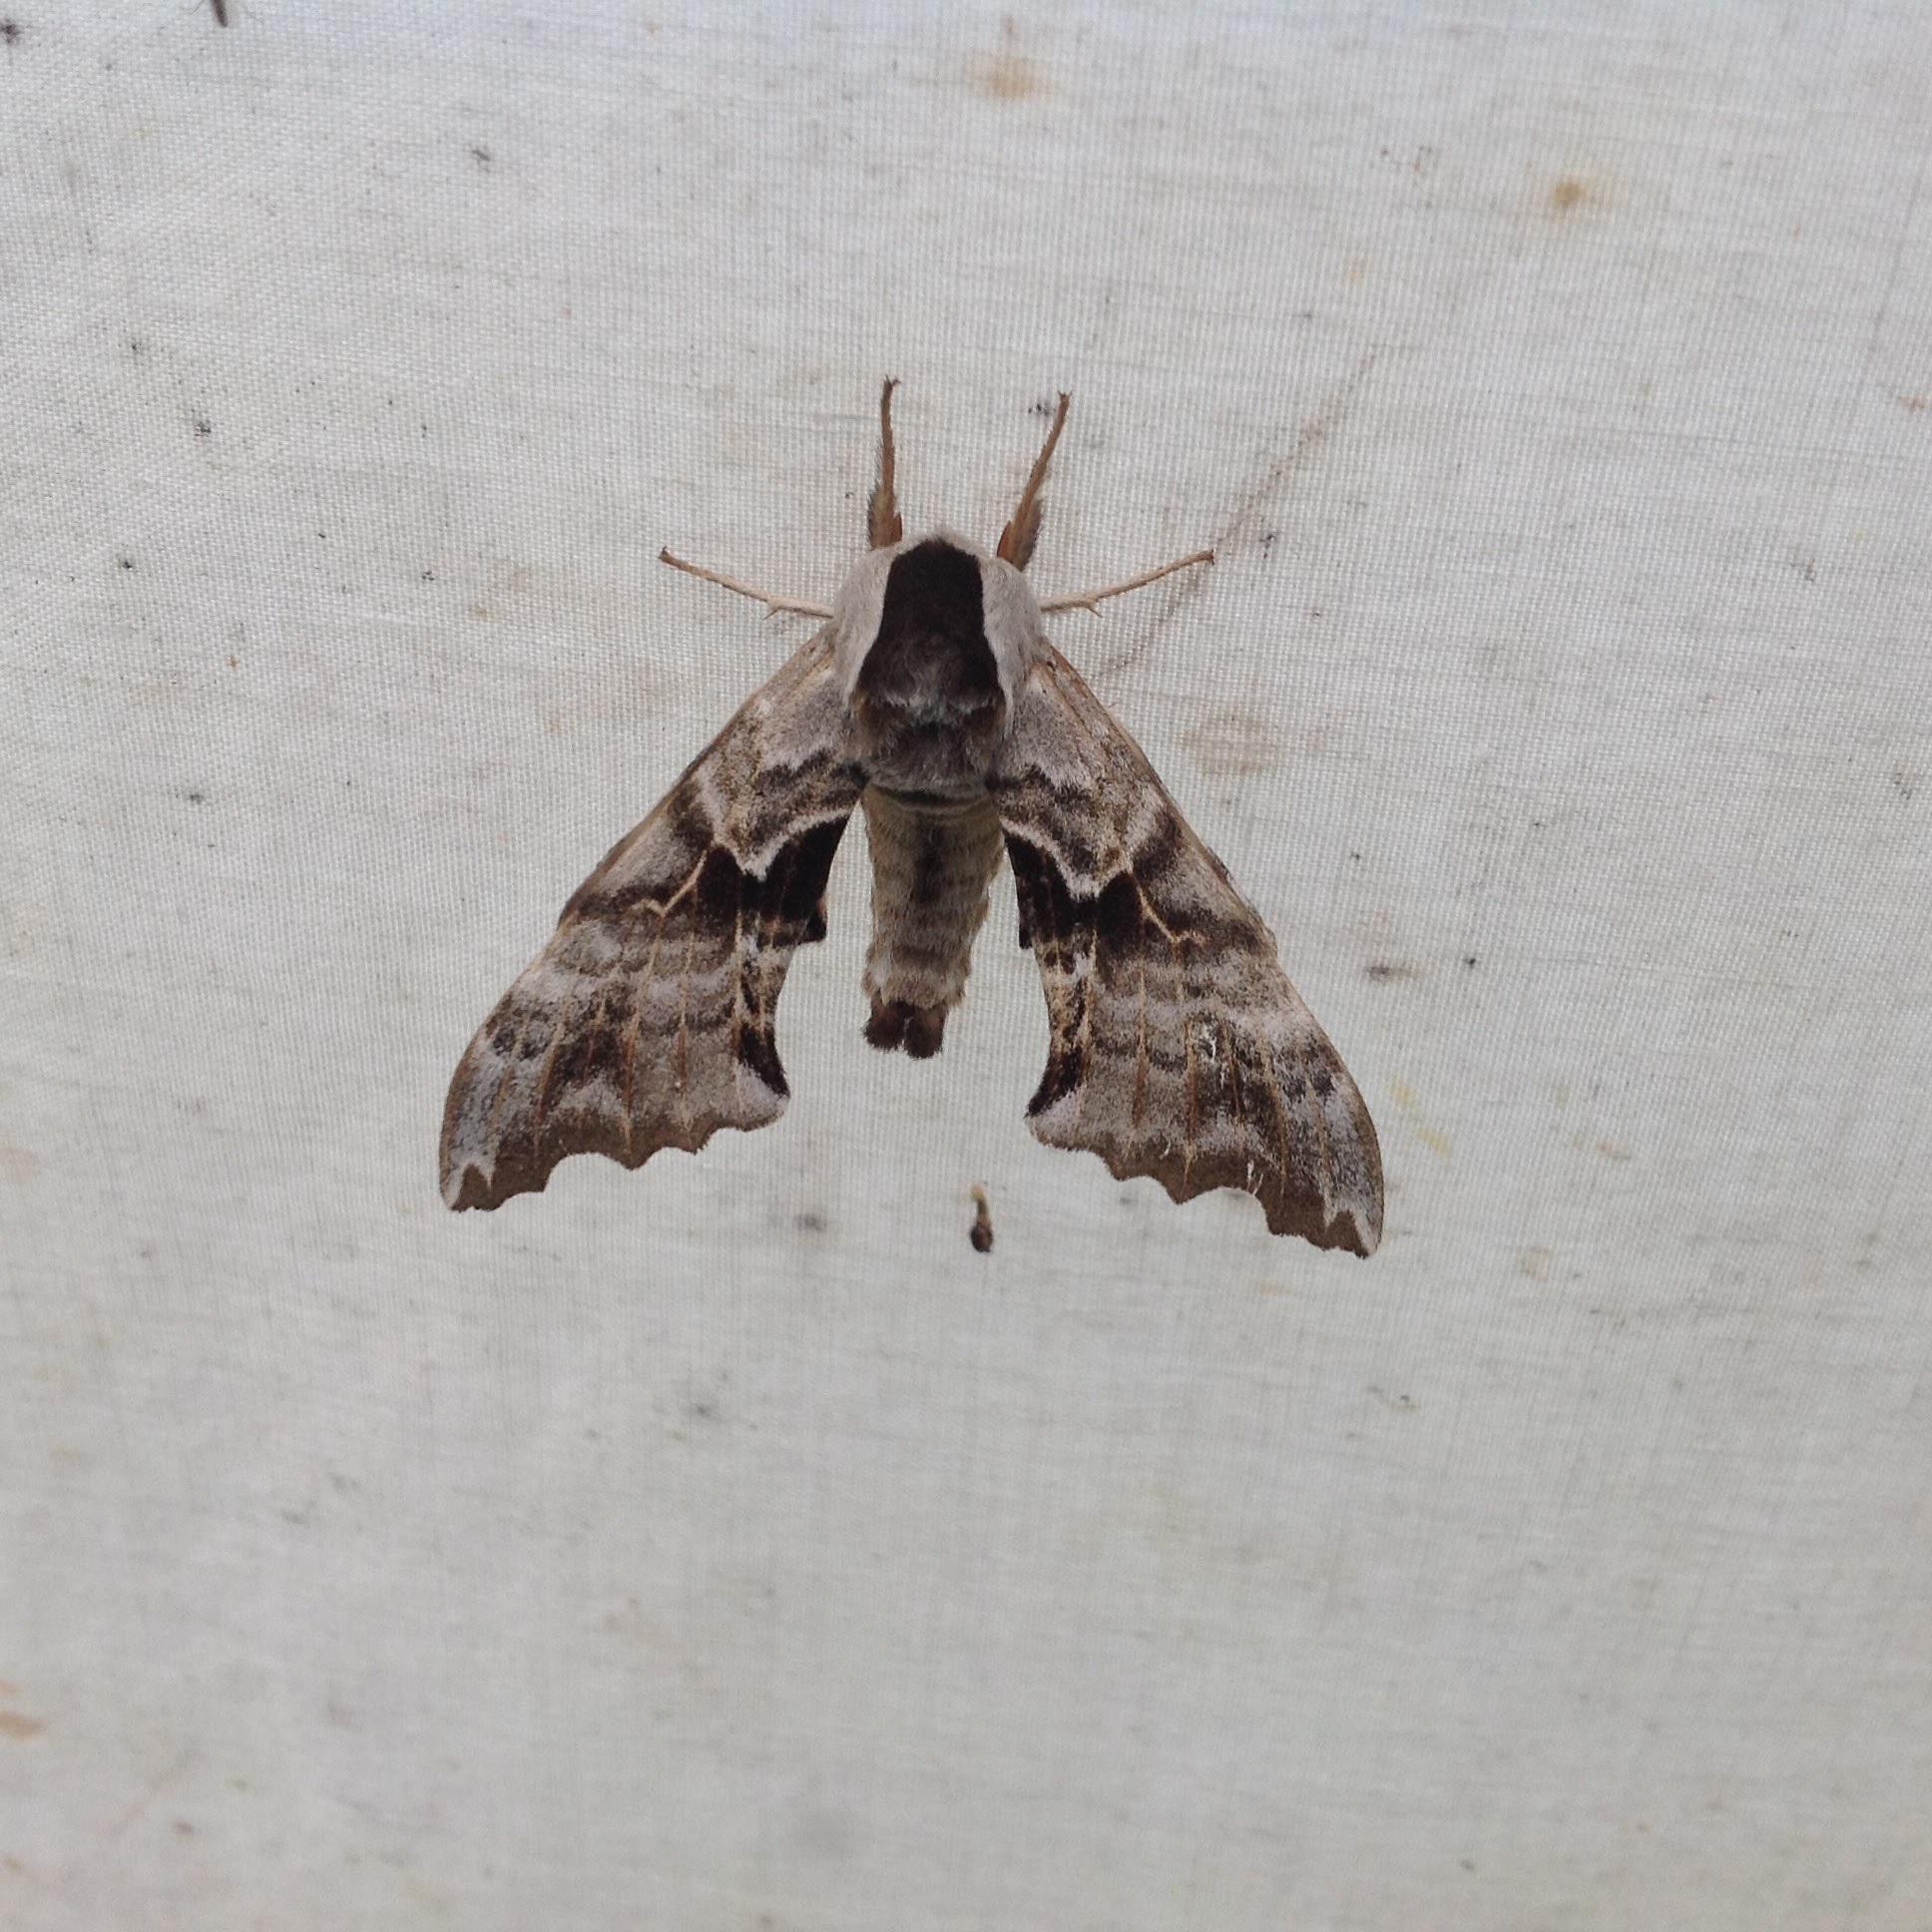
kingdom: Animalia
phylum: Arthropoda
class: Insecta
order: Lepidoptera
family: Sphingidae
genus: Smerinthus
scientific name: Smerinthus cerisyi
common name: Cerisy's sphinx moth
